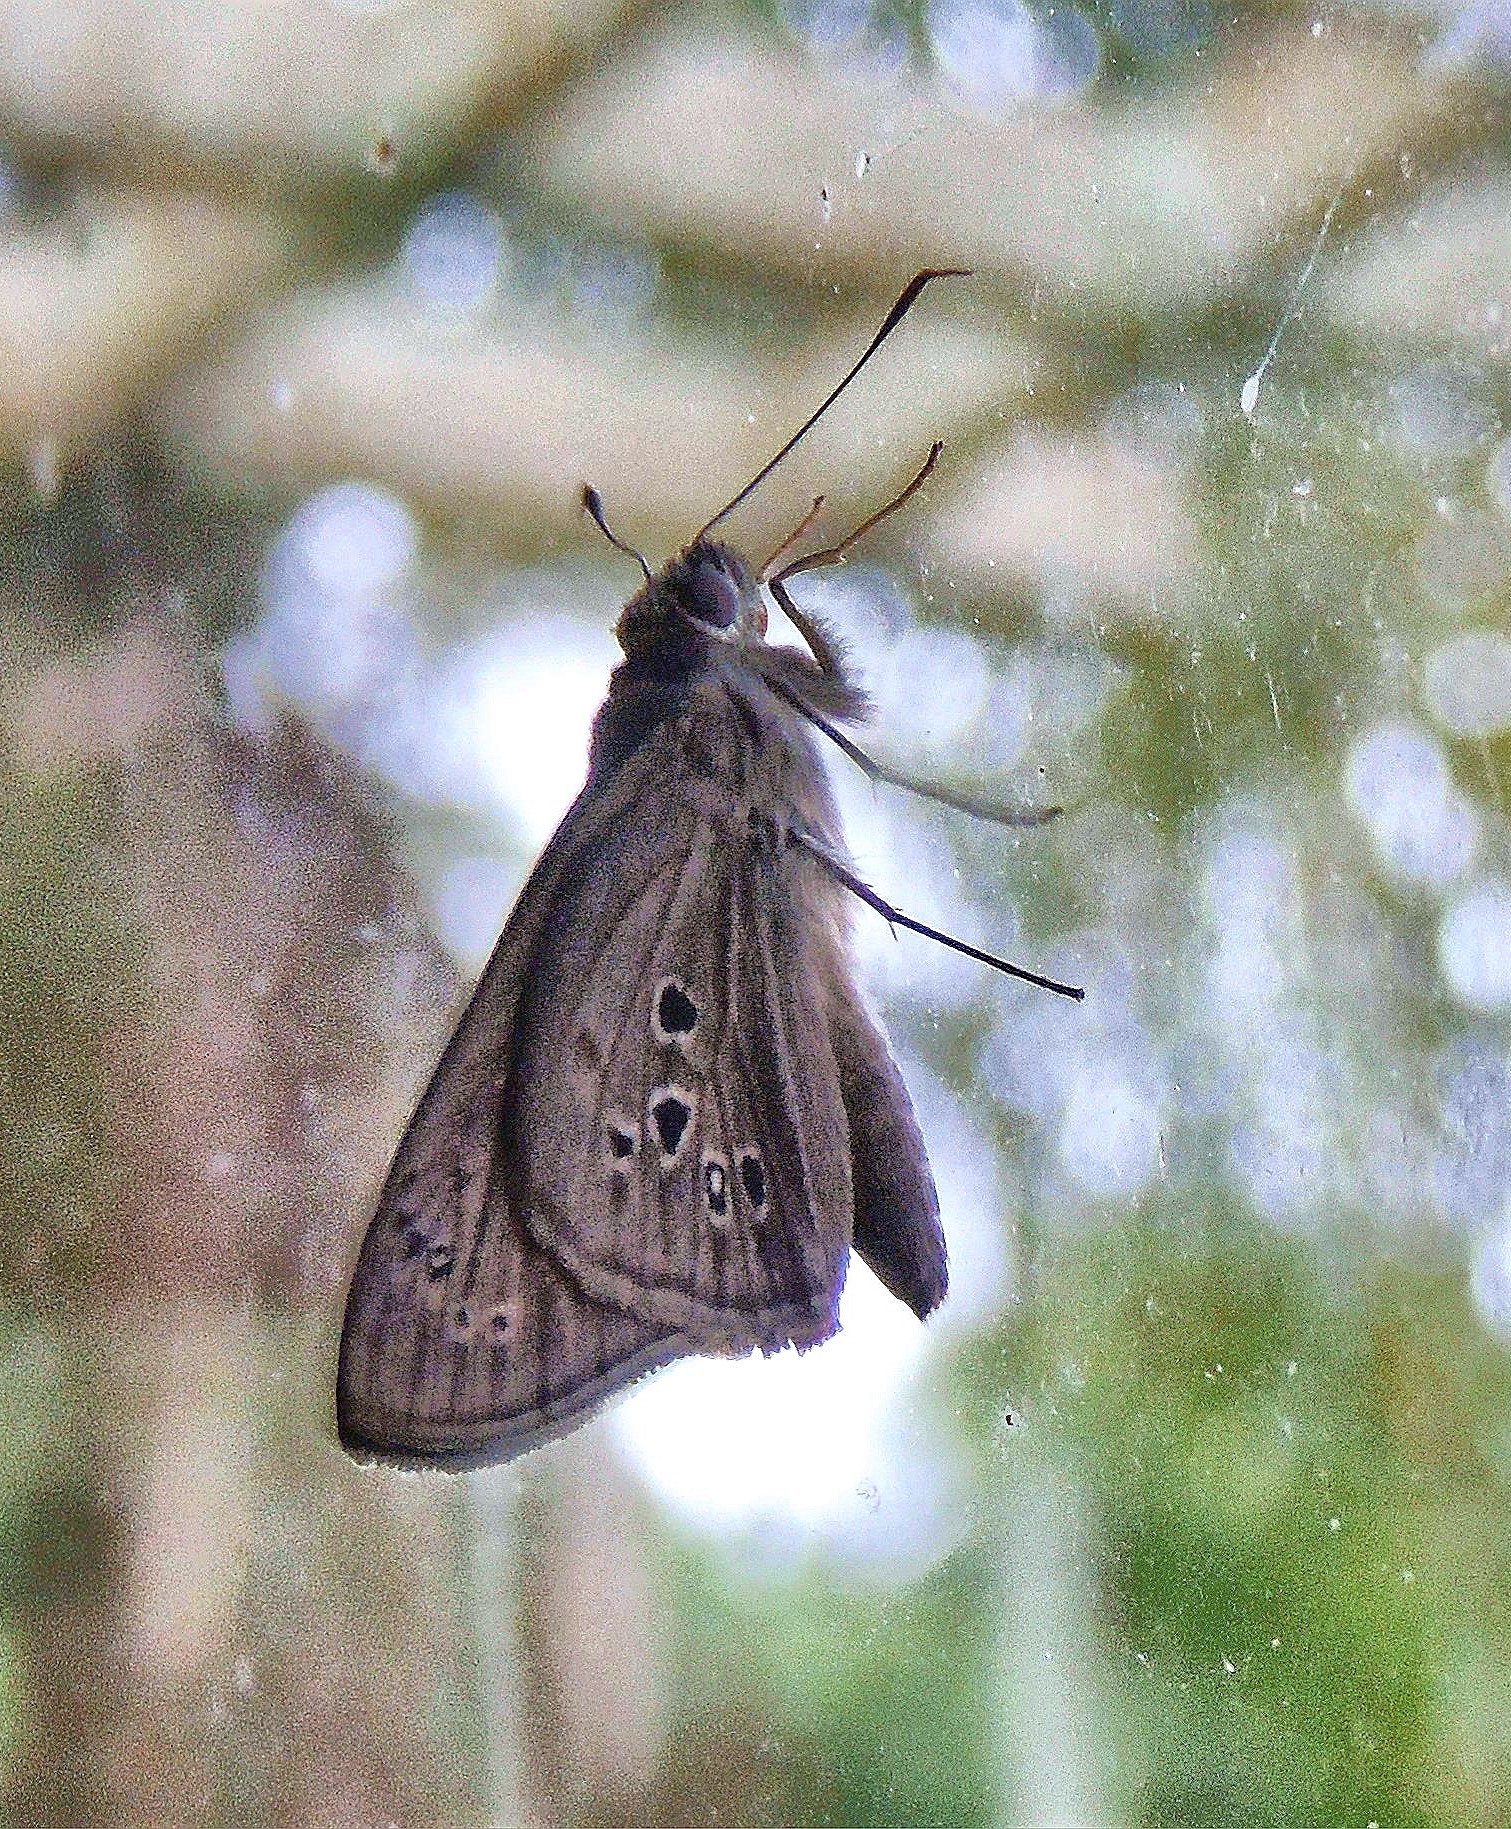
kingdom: Animalia
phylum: Arthropoda
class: Insecta
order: Lepidoptera
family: Hesperiidae
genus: Carystus
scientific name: Carystus
